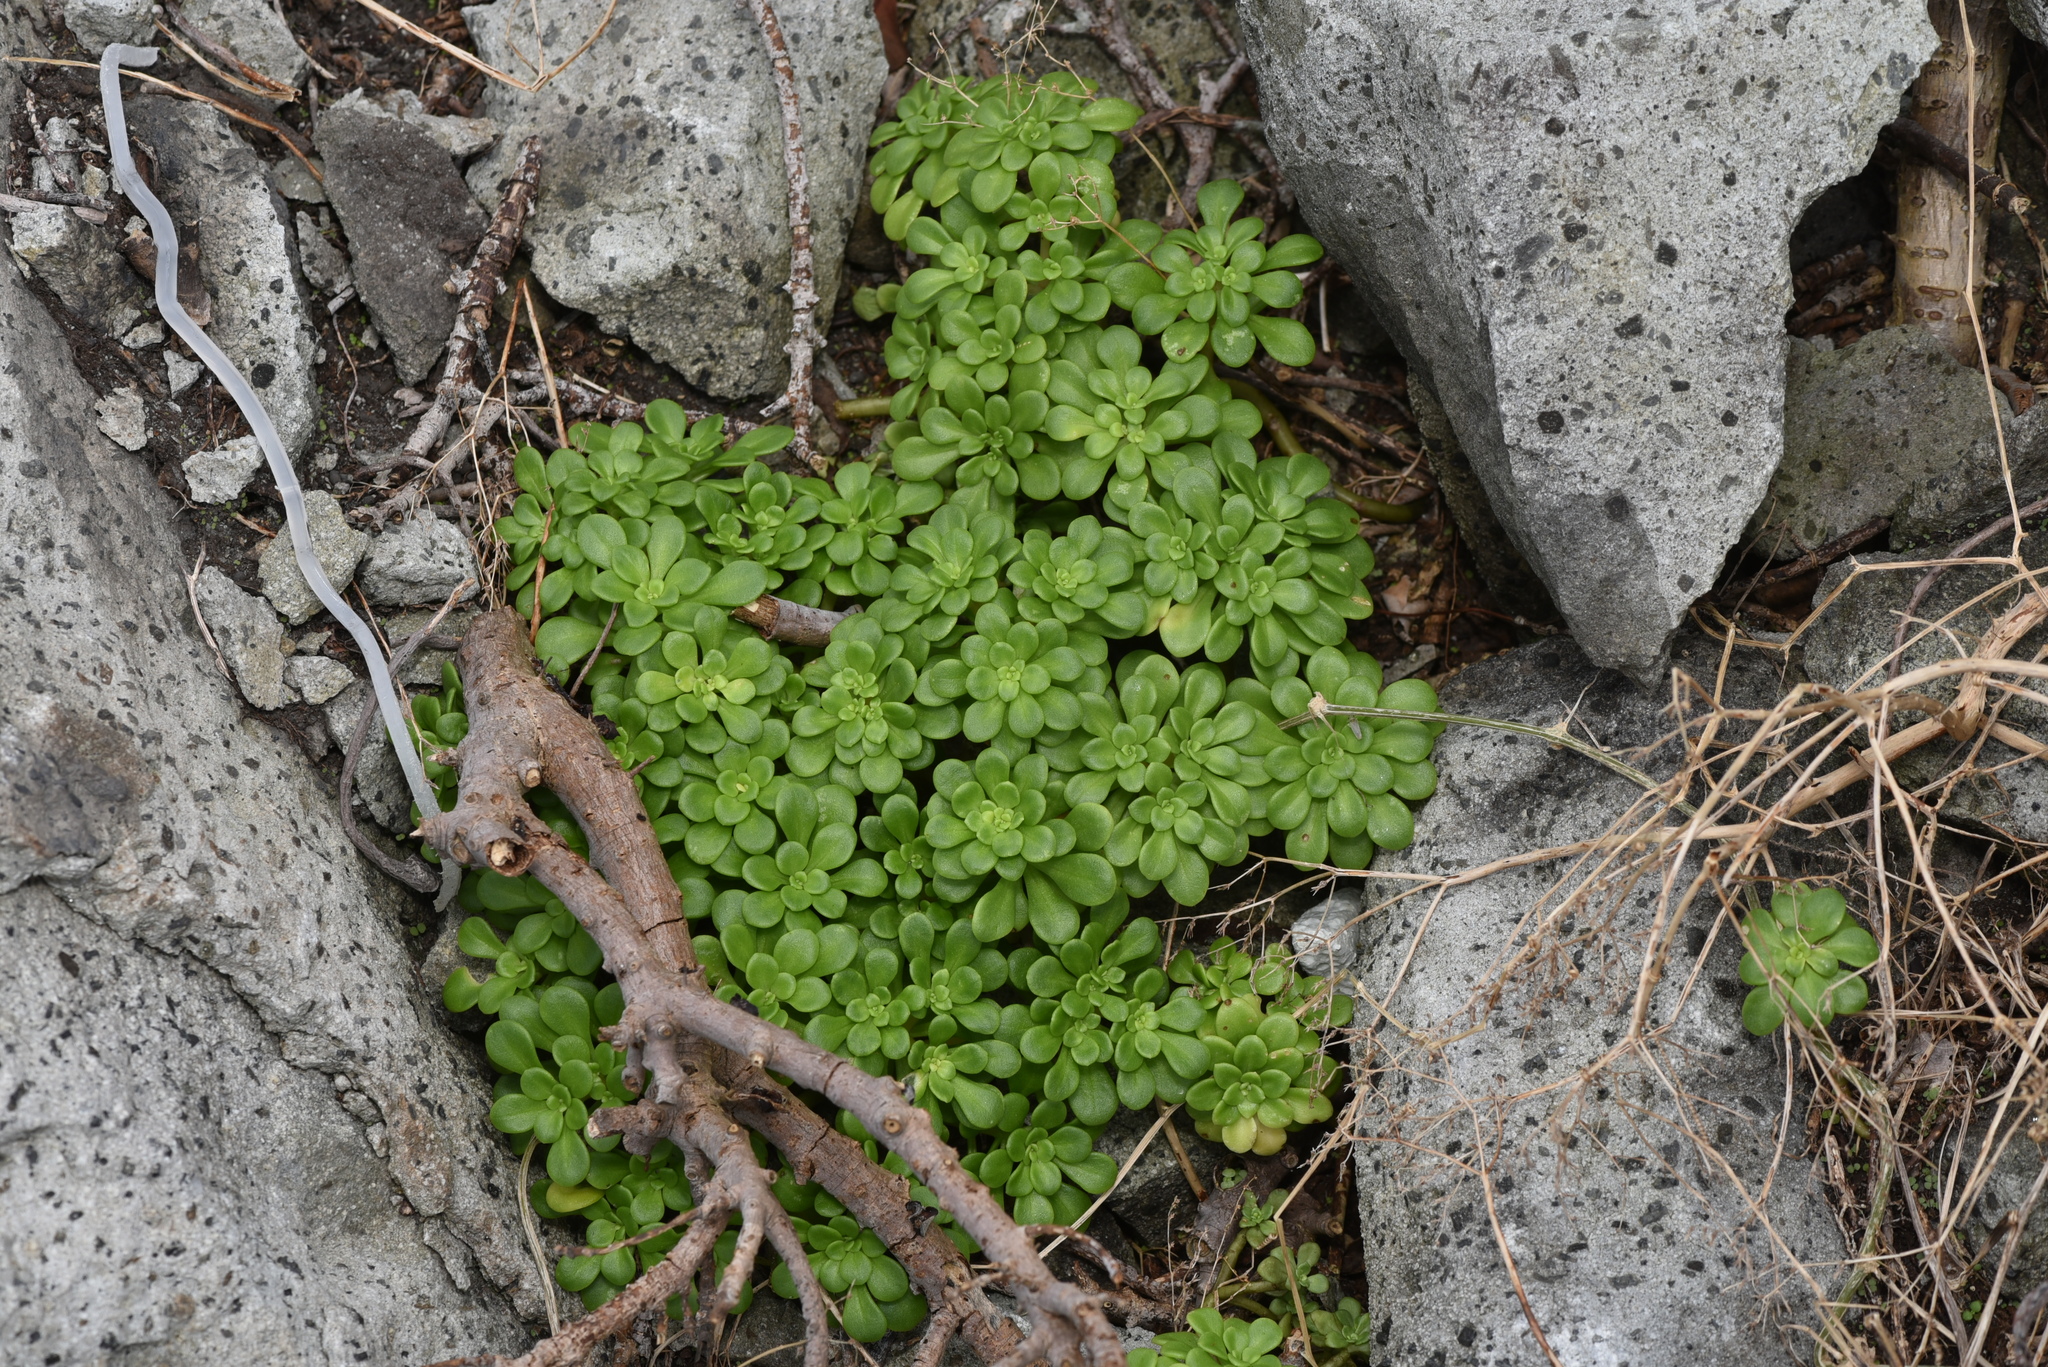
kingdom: Plantae
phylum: Tracheophyta
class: Magnoliopsida
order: Saxifragales
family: Crassulaceae
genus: Sedum
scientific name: Sedum formosanum
